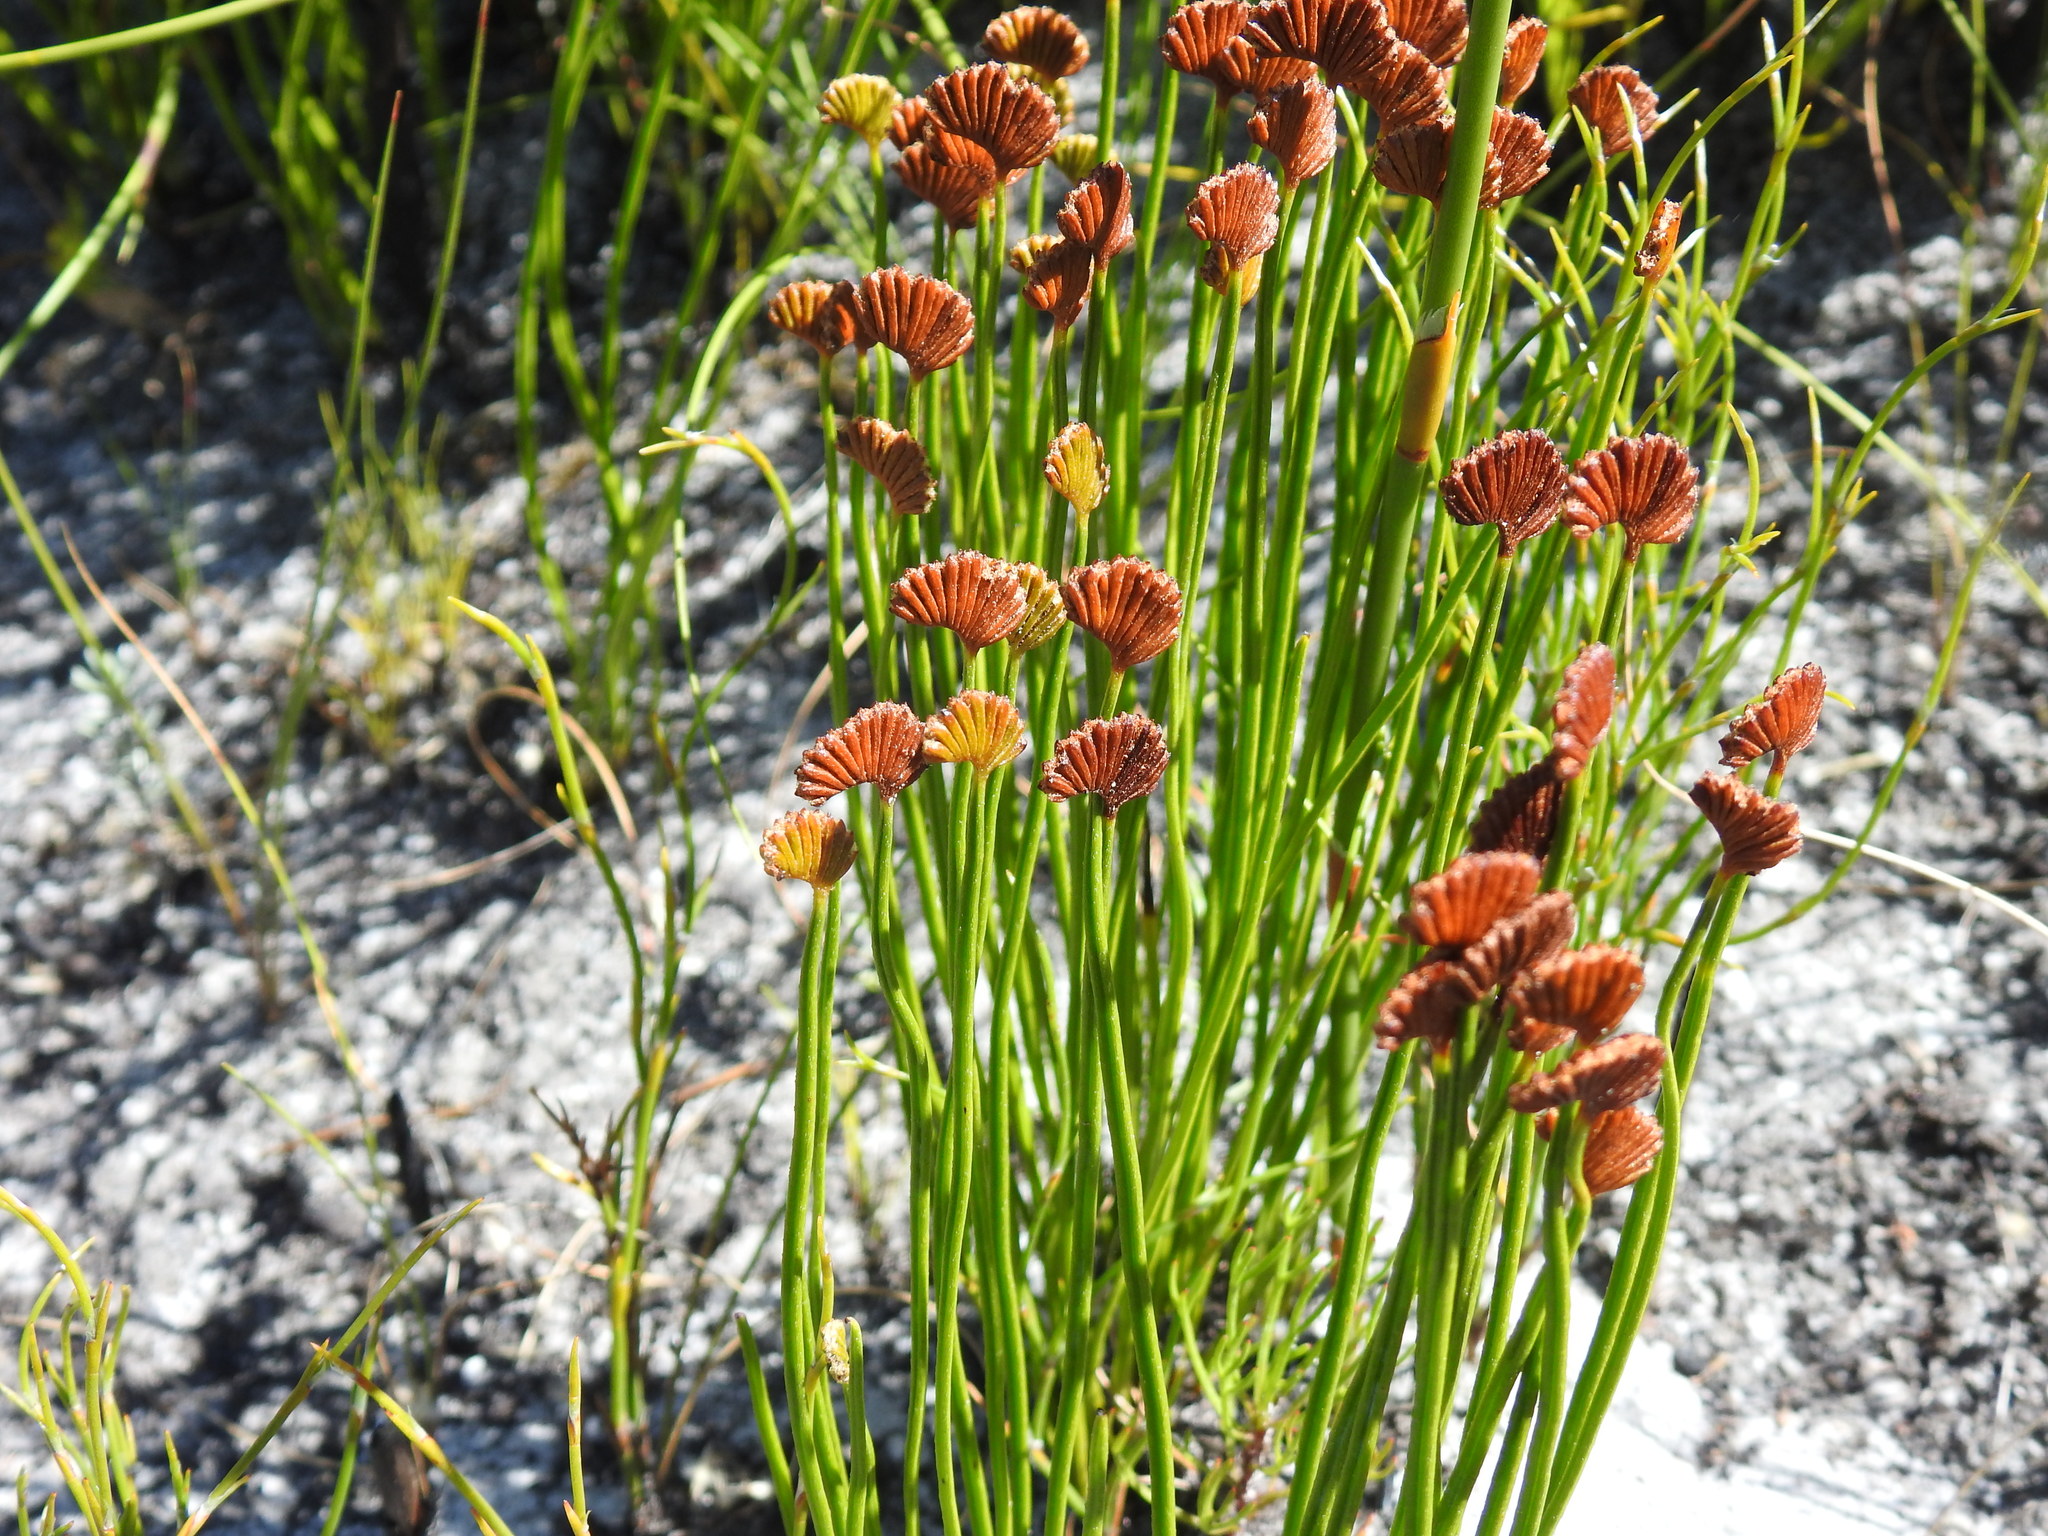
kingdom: Plantae
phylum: Tracheophyta
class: Polypodiopsida
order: Schizaeales
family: Schizaeaceae
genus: Schizaea
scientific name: Schizaea pectinata
